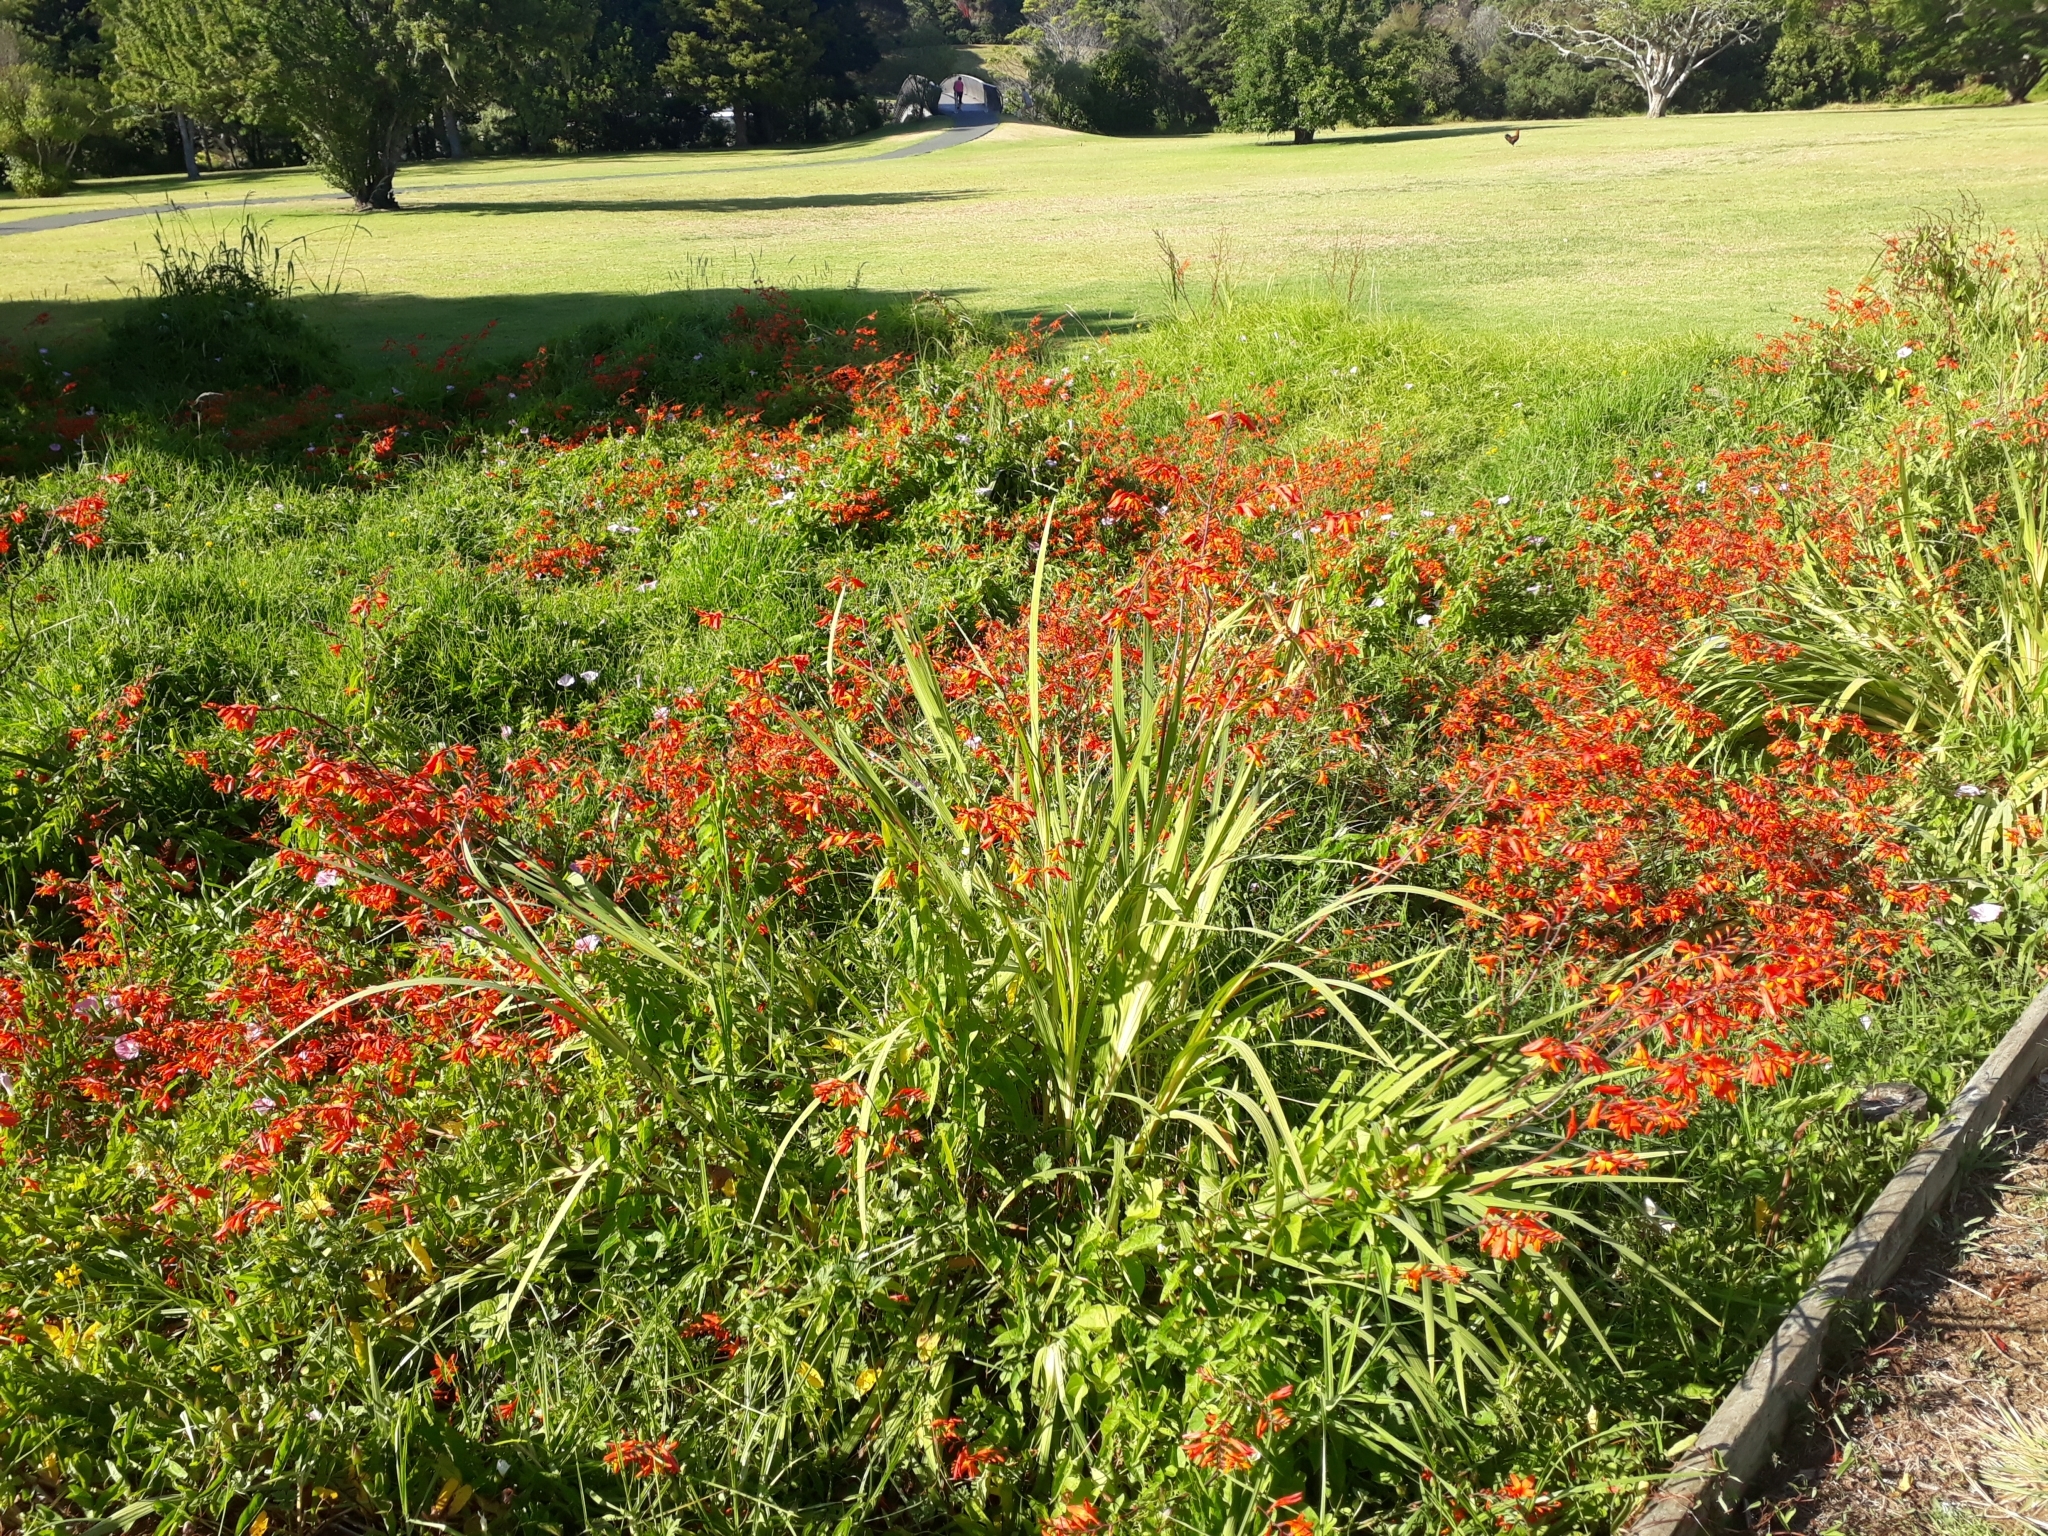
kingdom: Plantae
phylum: Tracheophyta
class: Liliopsida
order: Asparagales
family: Iridaceae
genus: Crocosmia
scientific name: Crocosmia crocosmiiflora
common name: Montbretia
